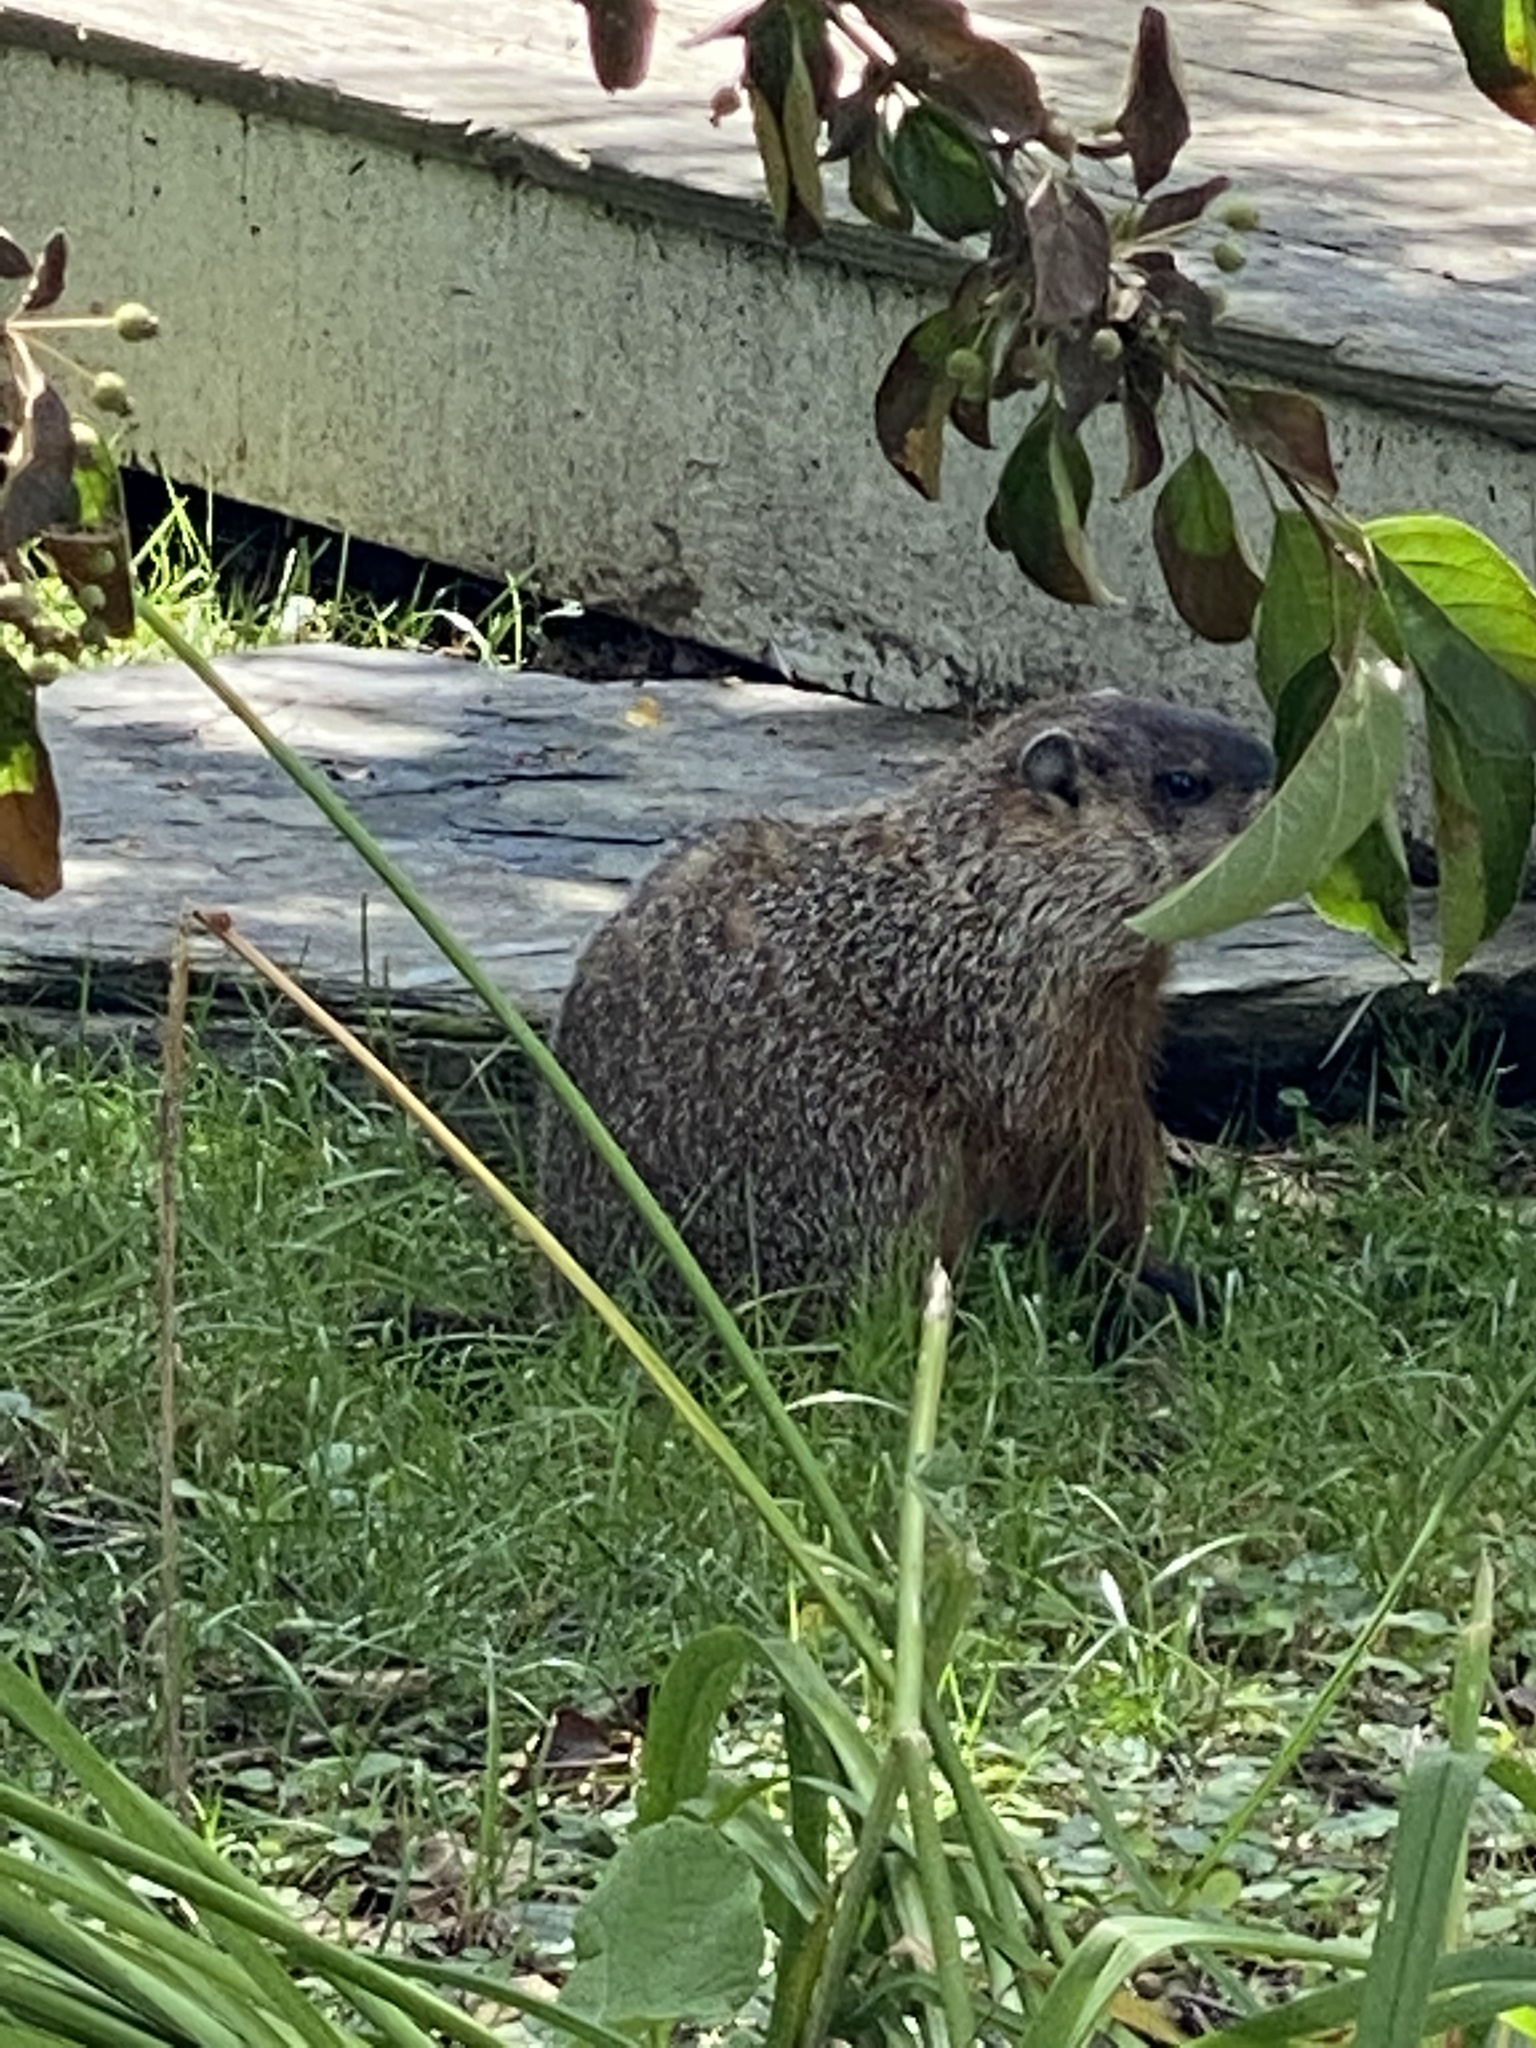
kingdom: Animalia
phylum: Chordata
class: Mammalia
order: Rodentia
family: Sciuridae
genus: Marmota
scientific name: Marmota monax
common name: Groundhog
